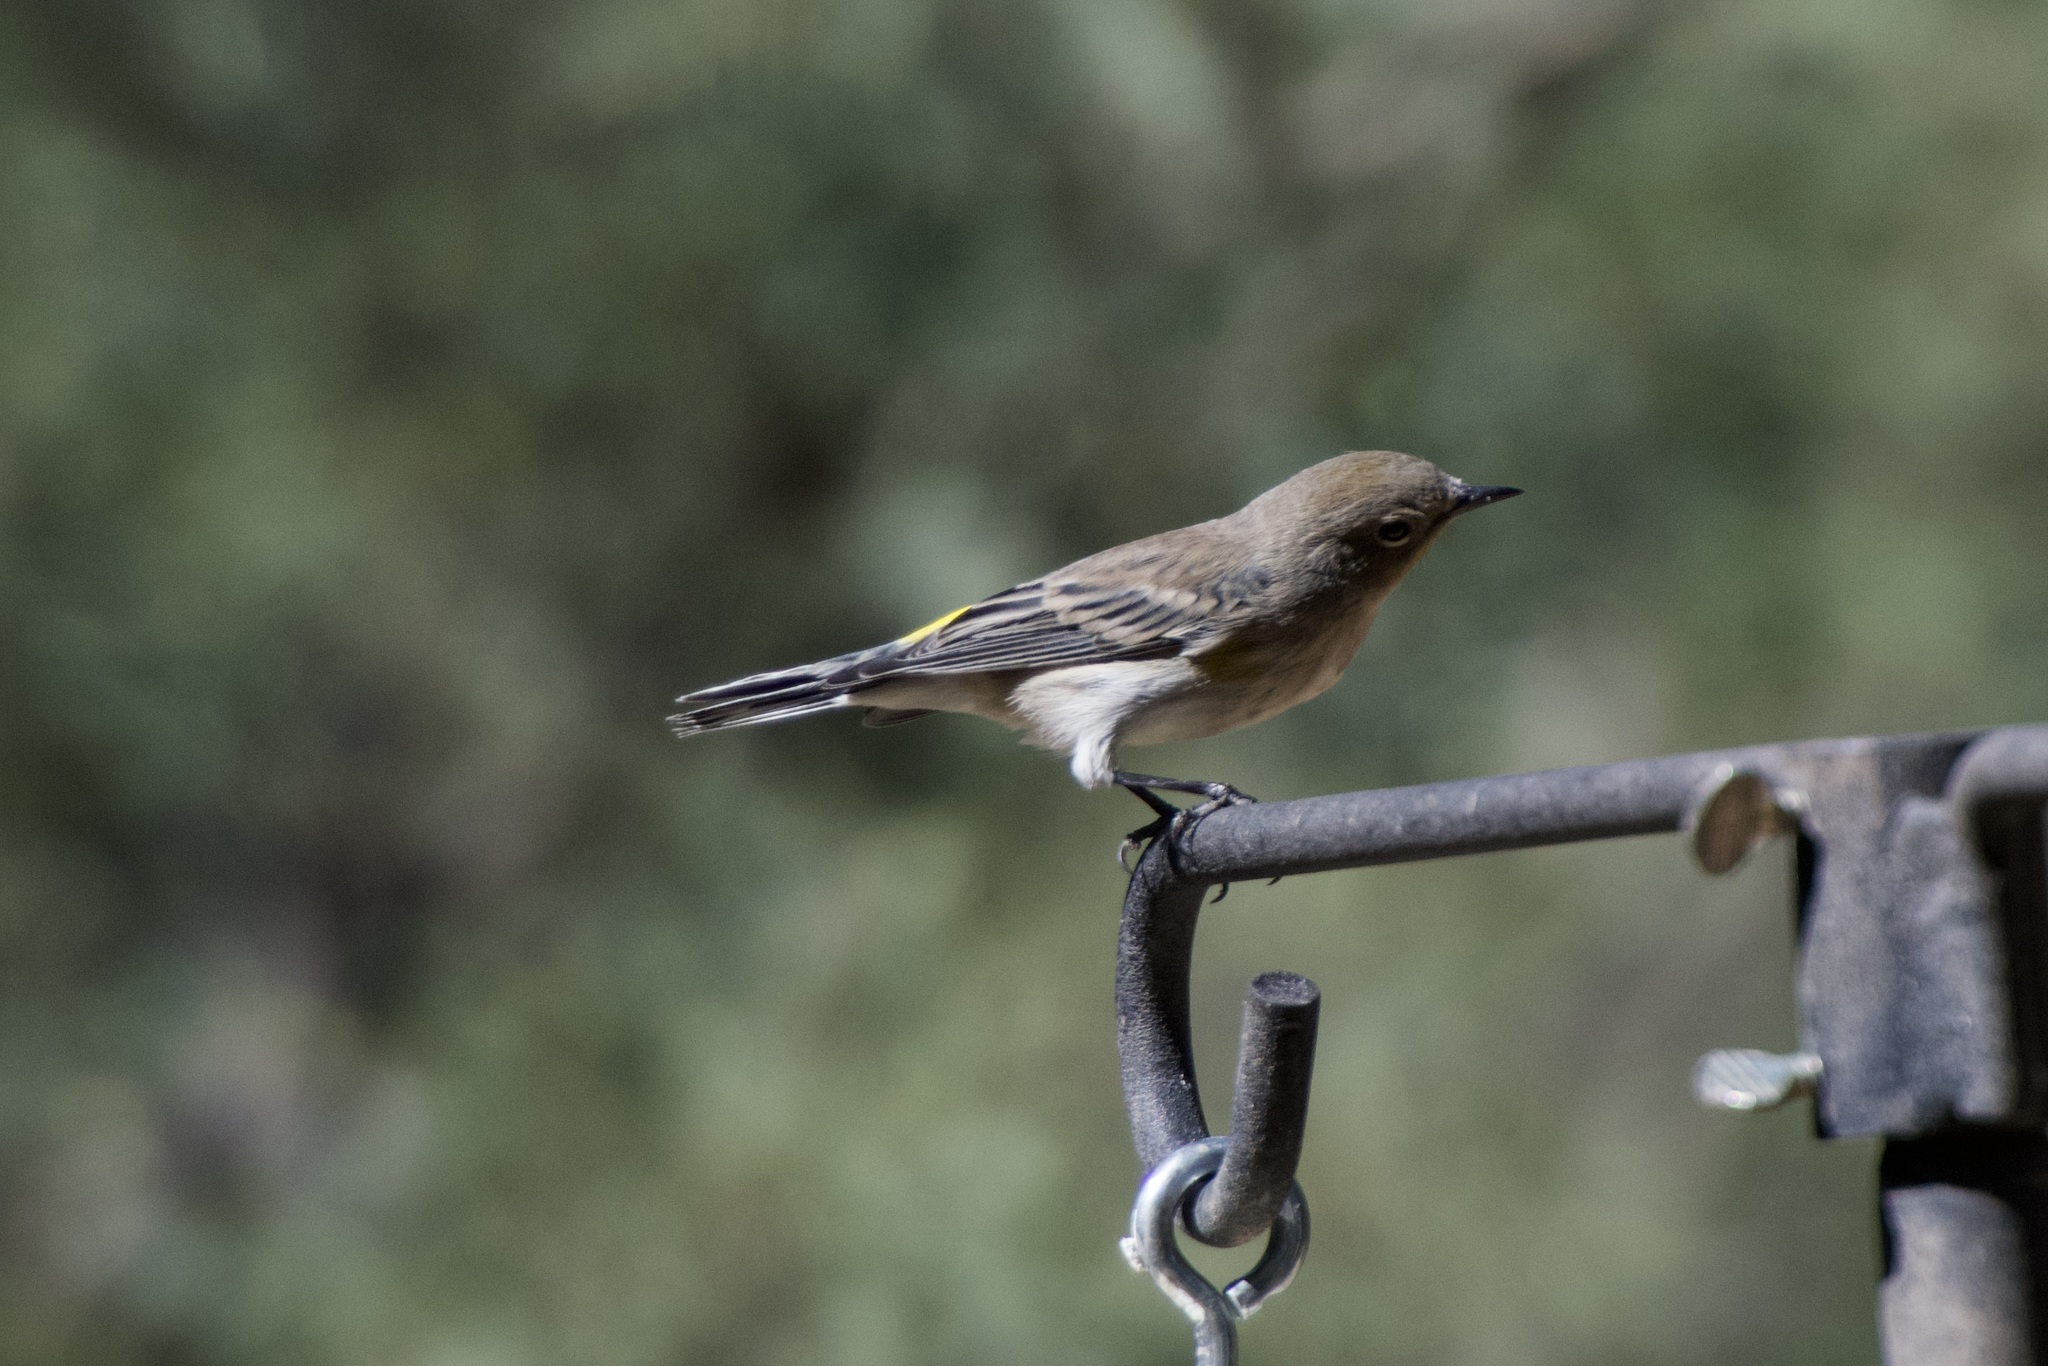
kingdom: Animalia
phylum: Chordata
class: Aves
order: Passeriformes
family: Parulidae
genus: Setophaga
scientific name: Setophaga auduboni
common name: Audubon's warbler
